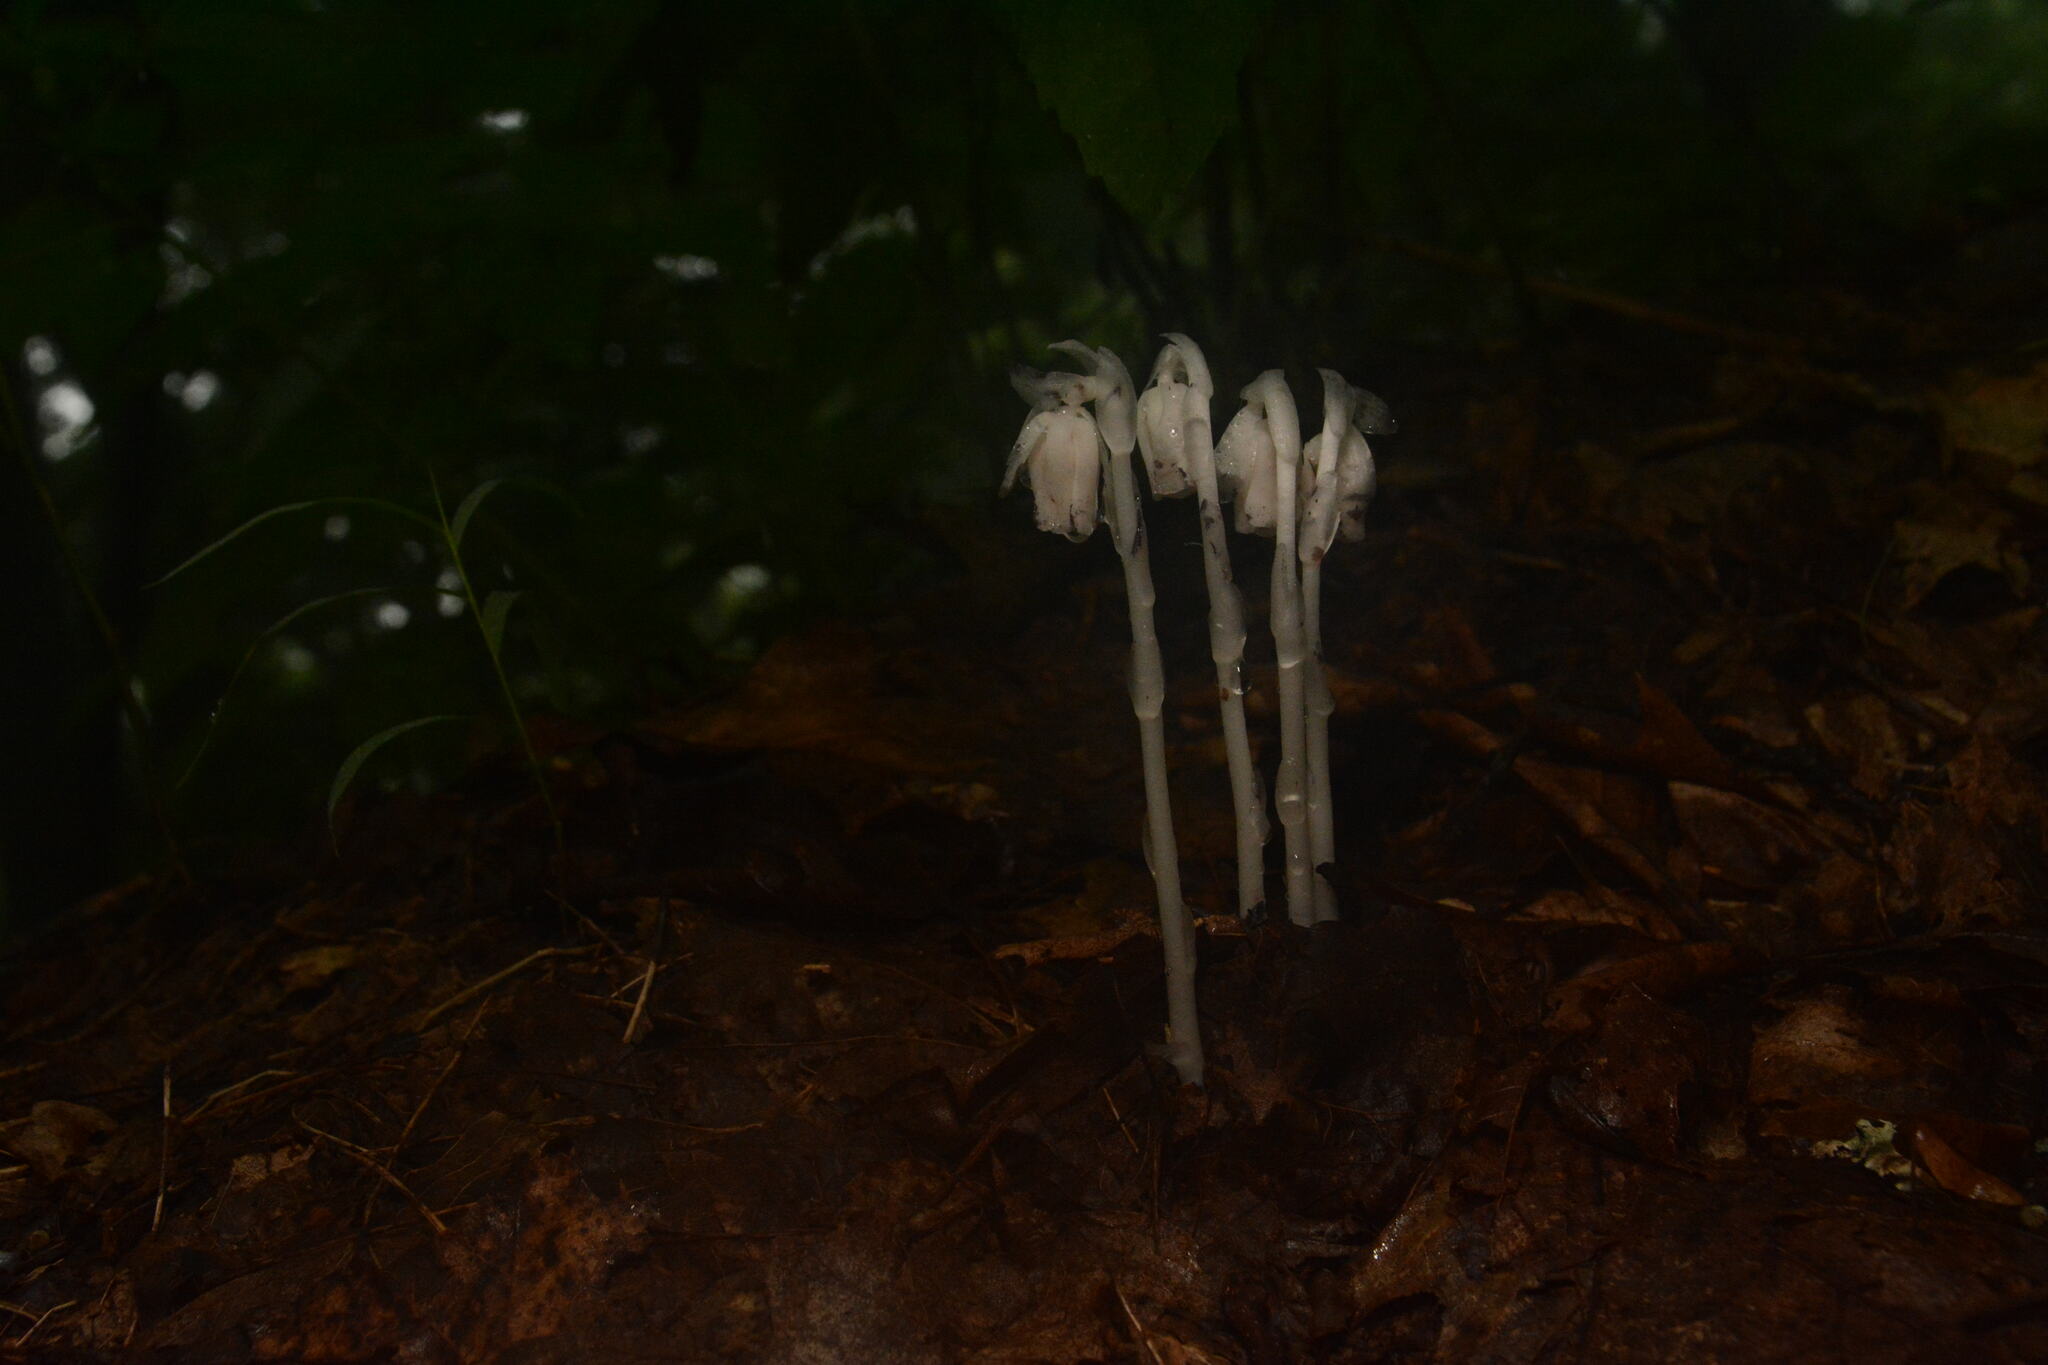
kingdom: Plantae
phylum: Tracheophyta
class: Magnoliopsida
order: Ericales
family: Ericaceae
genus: Monotropa
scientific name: Monotropa uniflora
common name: Convulsion root
